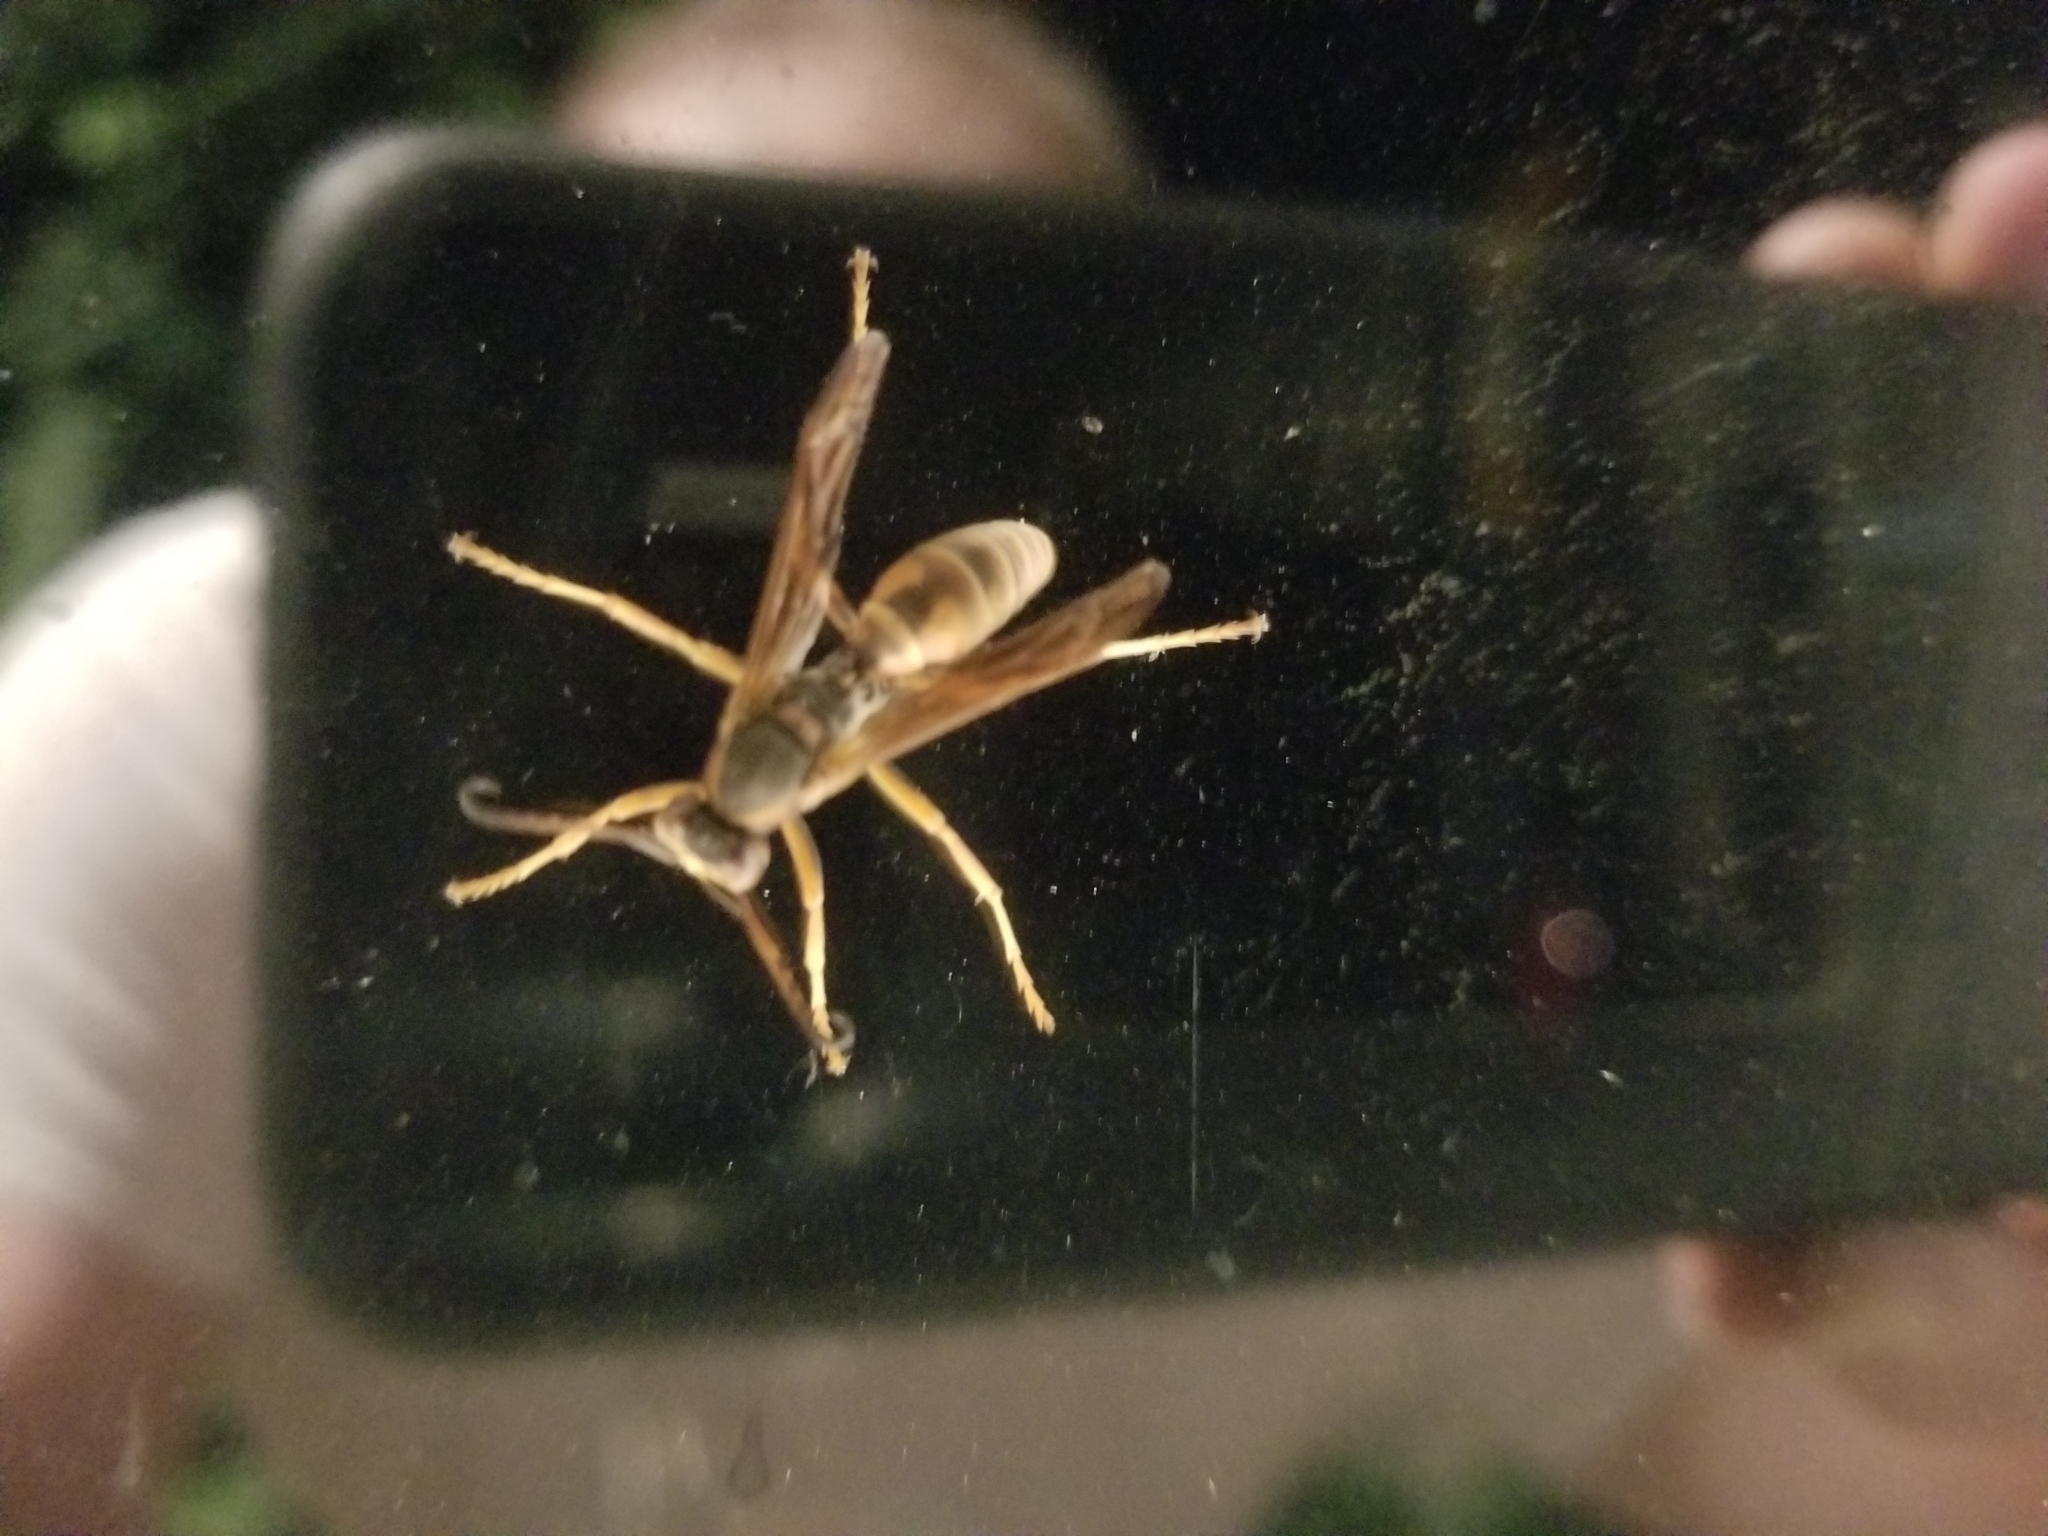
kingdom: Animalia
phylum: Arthropoda
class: Insecta
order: Hymenoptera
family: Eumenidae
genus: Polistes
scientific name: Polistes fuscatus
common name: Dark paper wasp
